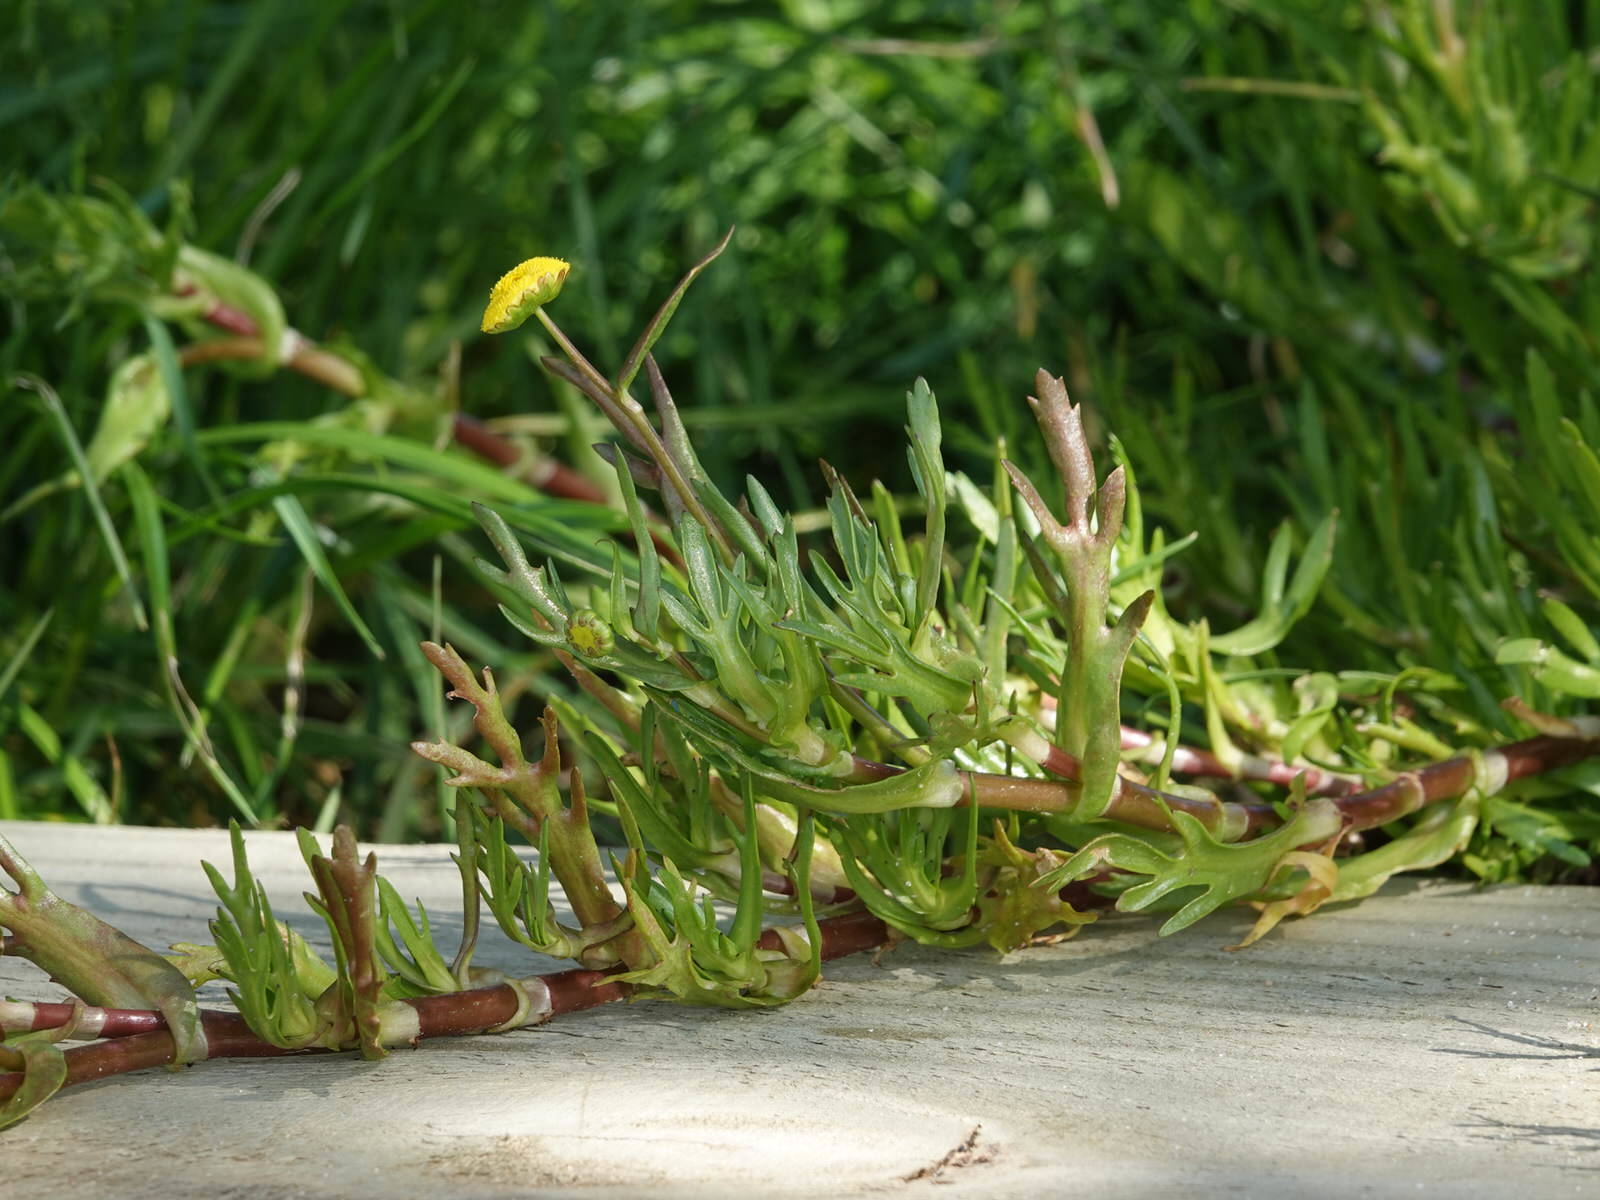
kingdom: Plantae
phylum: Tracheophyta
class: Magnoliopsida
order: Asterales
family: Asteraceae
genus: Cotula
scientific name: Cotula coronopifolia
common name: Buttonweed
